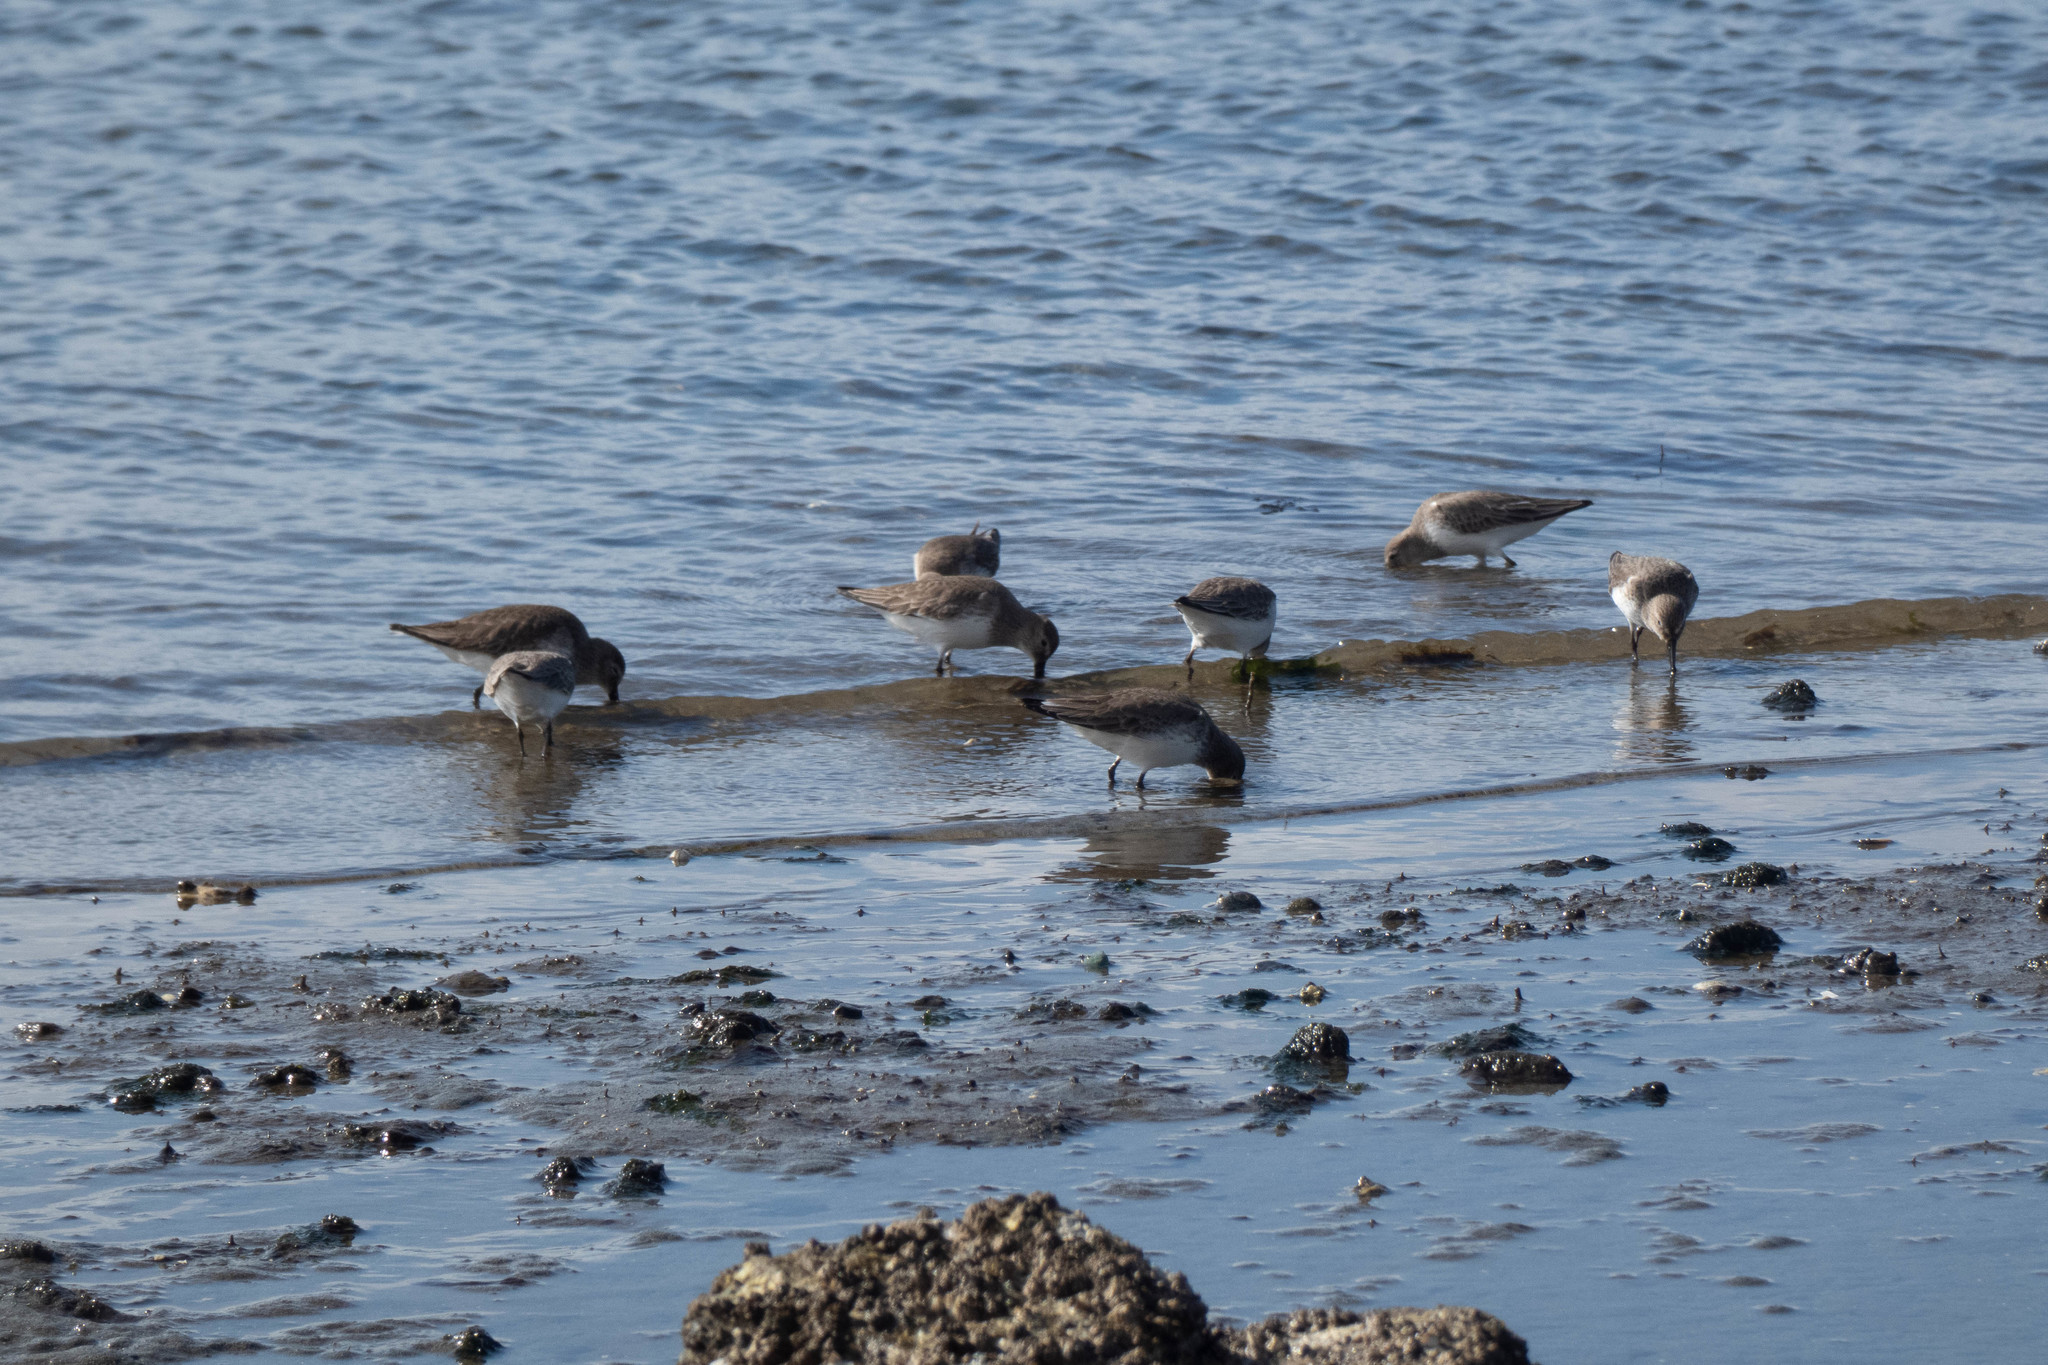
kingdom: Animalia
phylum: Chordata
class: Aves
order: Charadriiformes
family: Scolopacidae
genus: Calidris
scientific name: Calidris alpina
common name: Dunlin
